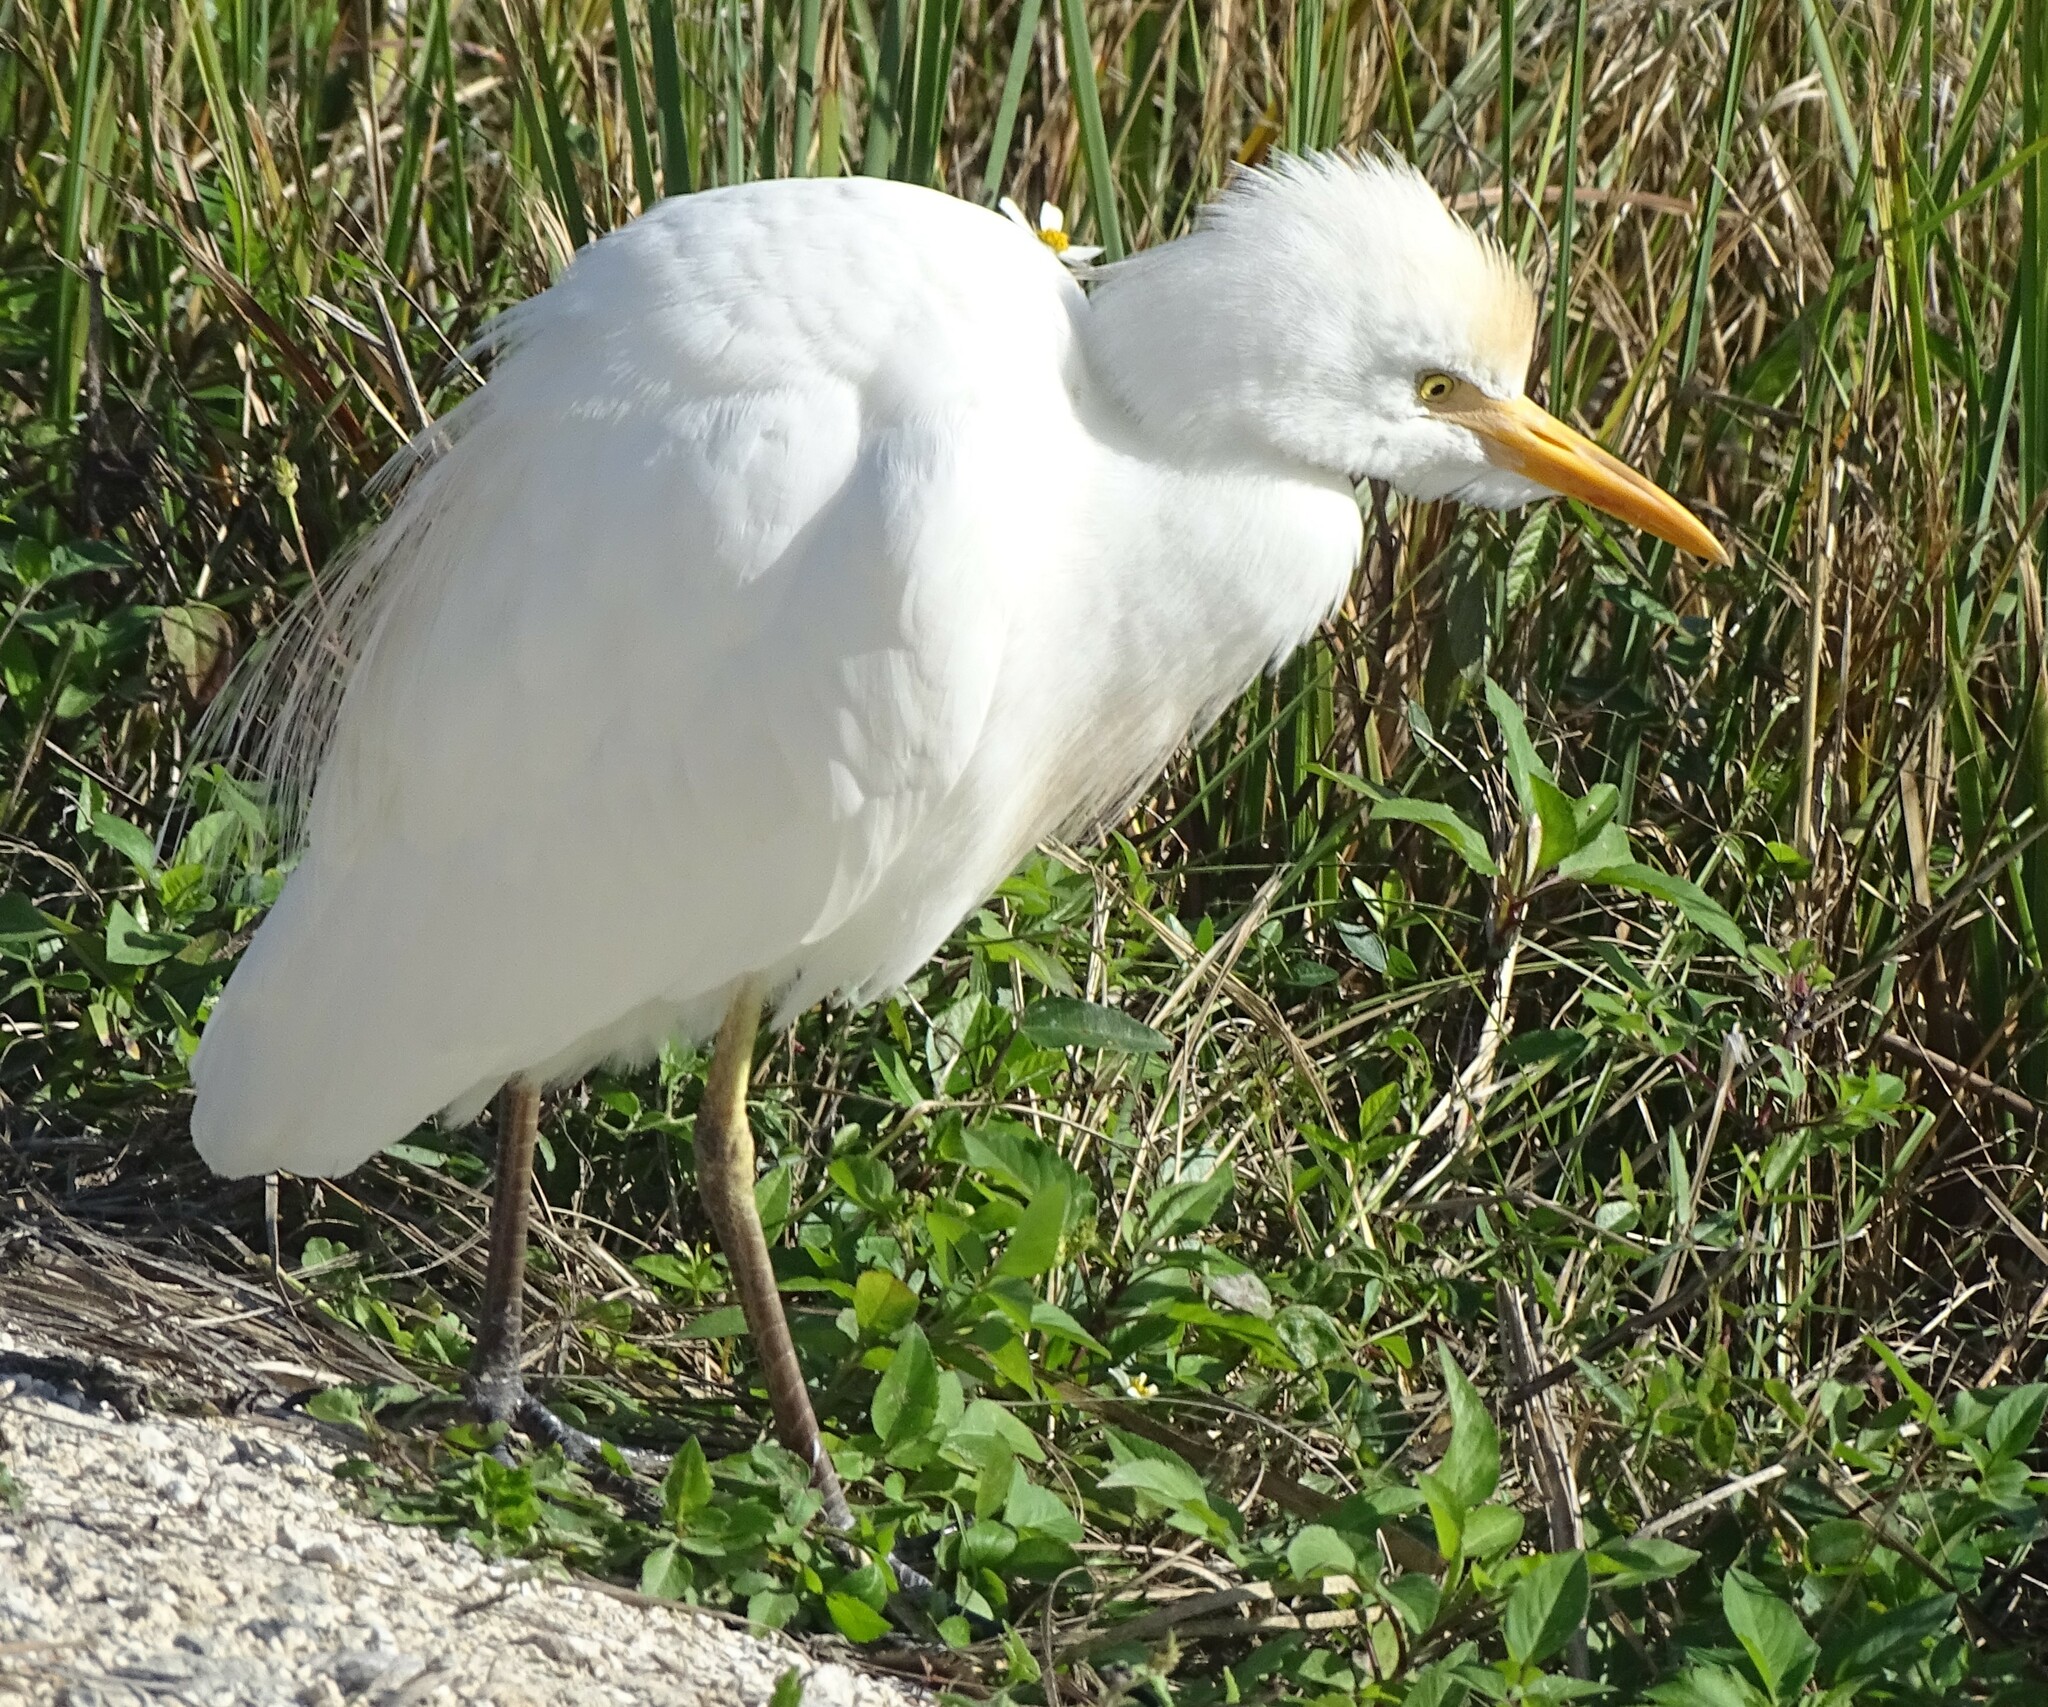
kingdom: Animalia
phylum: Chordata
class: Aves
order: Pelecaniformes
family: Ardeidae
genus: Bubulcus
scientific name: Bubulcus ibis
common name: Cattle egret
